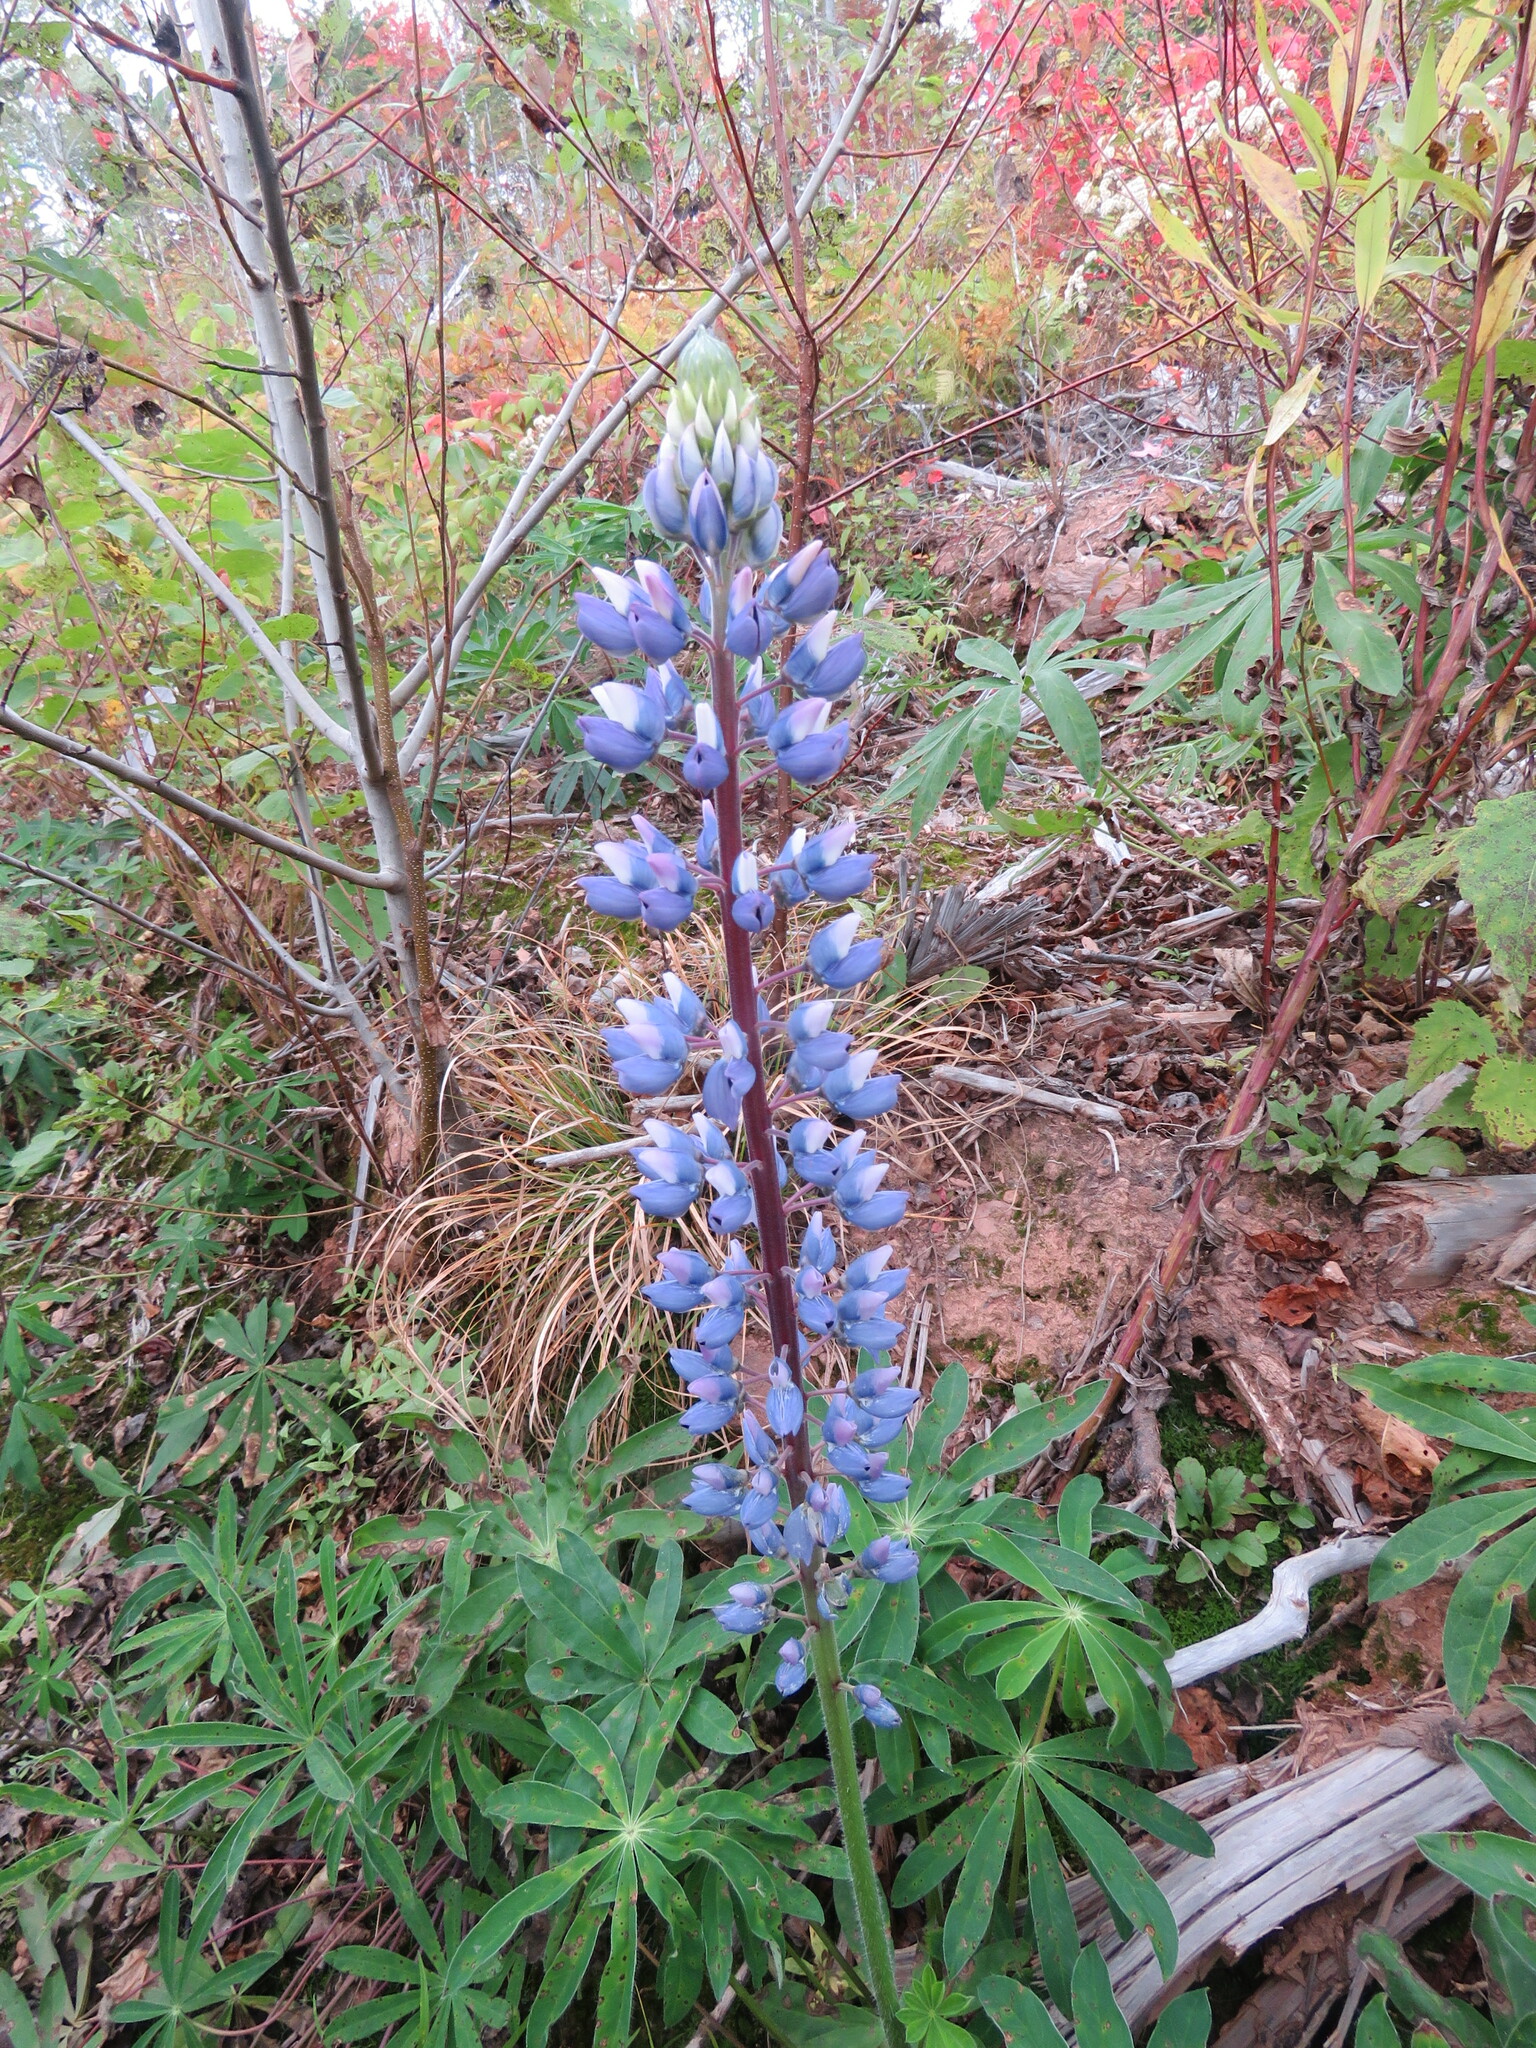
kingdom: Plantae
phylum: Tracheophyta
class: Magnoliopsida
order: Fabales
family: Fabaceae
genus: Lupinus
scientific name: Lupinus polyphyllus
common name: Garden lupin
